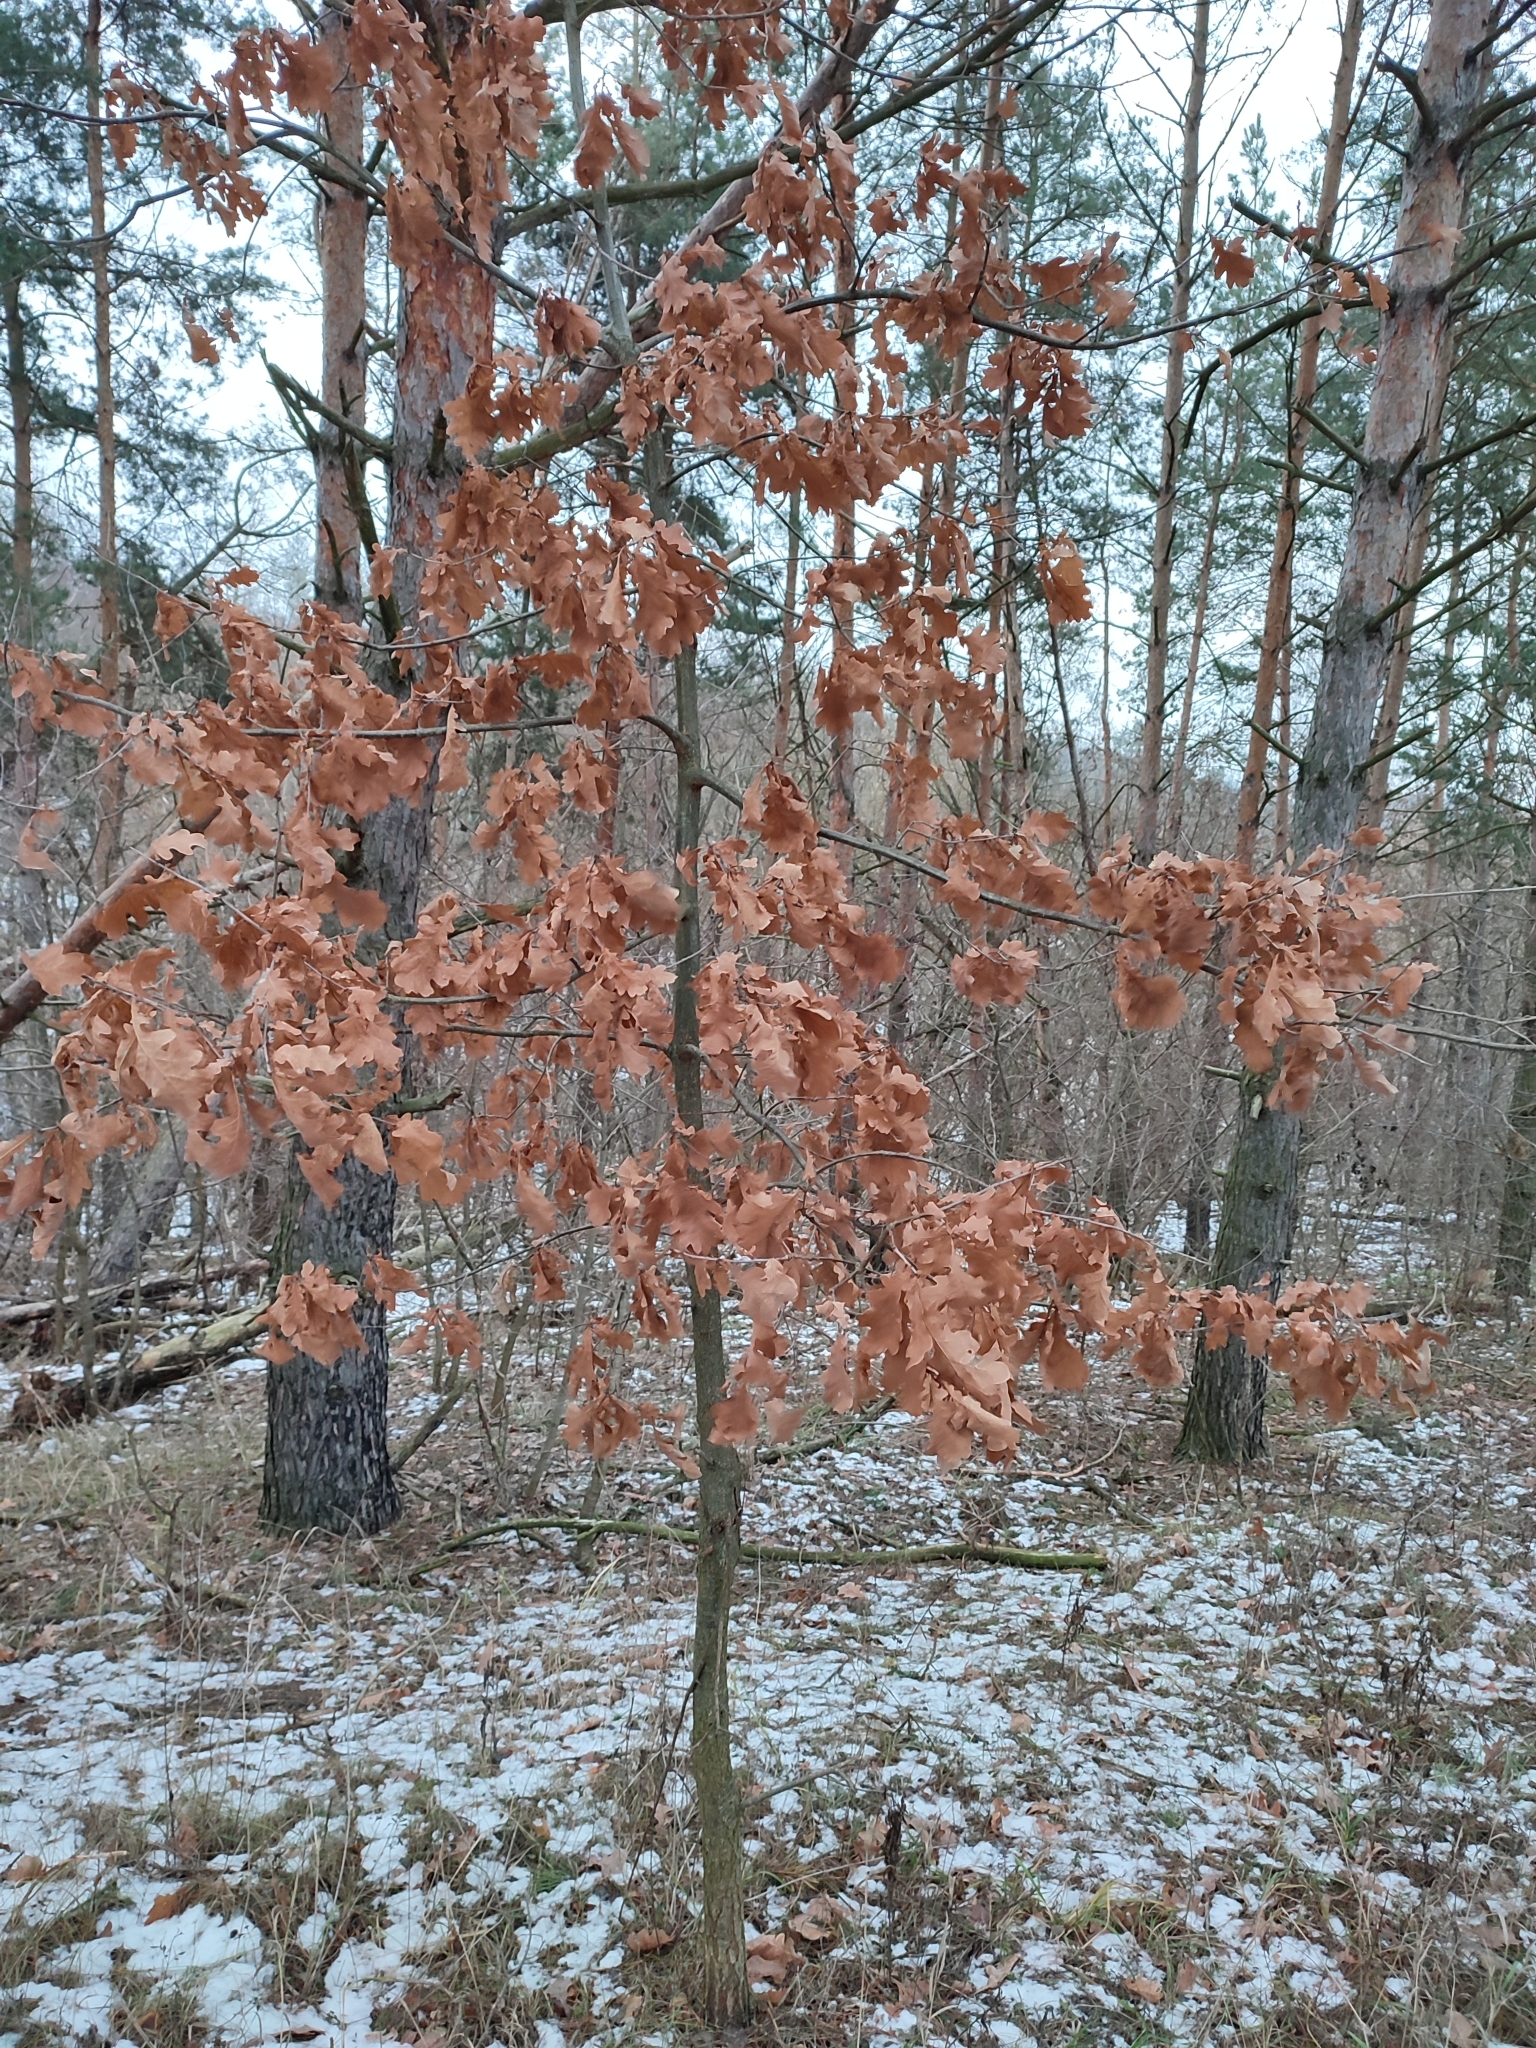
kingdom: Plantae
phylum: Tracheophyta
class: Magnoliopsida
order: Fagales
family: Fagaceae
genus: Quercus
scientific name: Quercus robur
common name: Pedunculate oak
